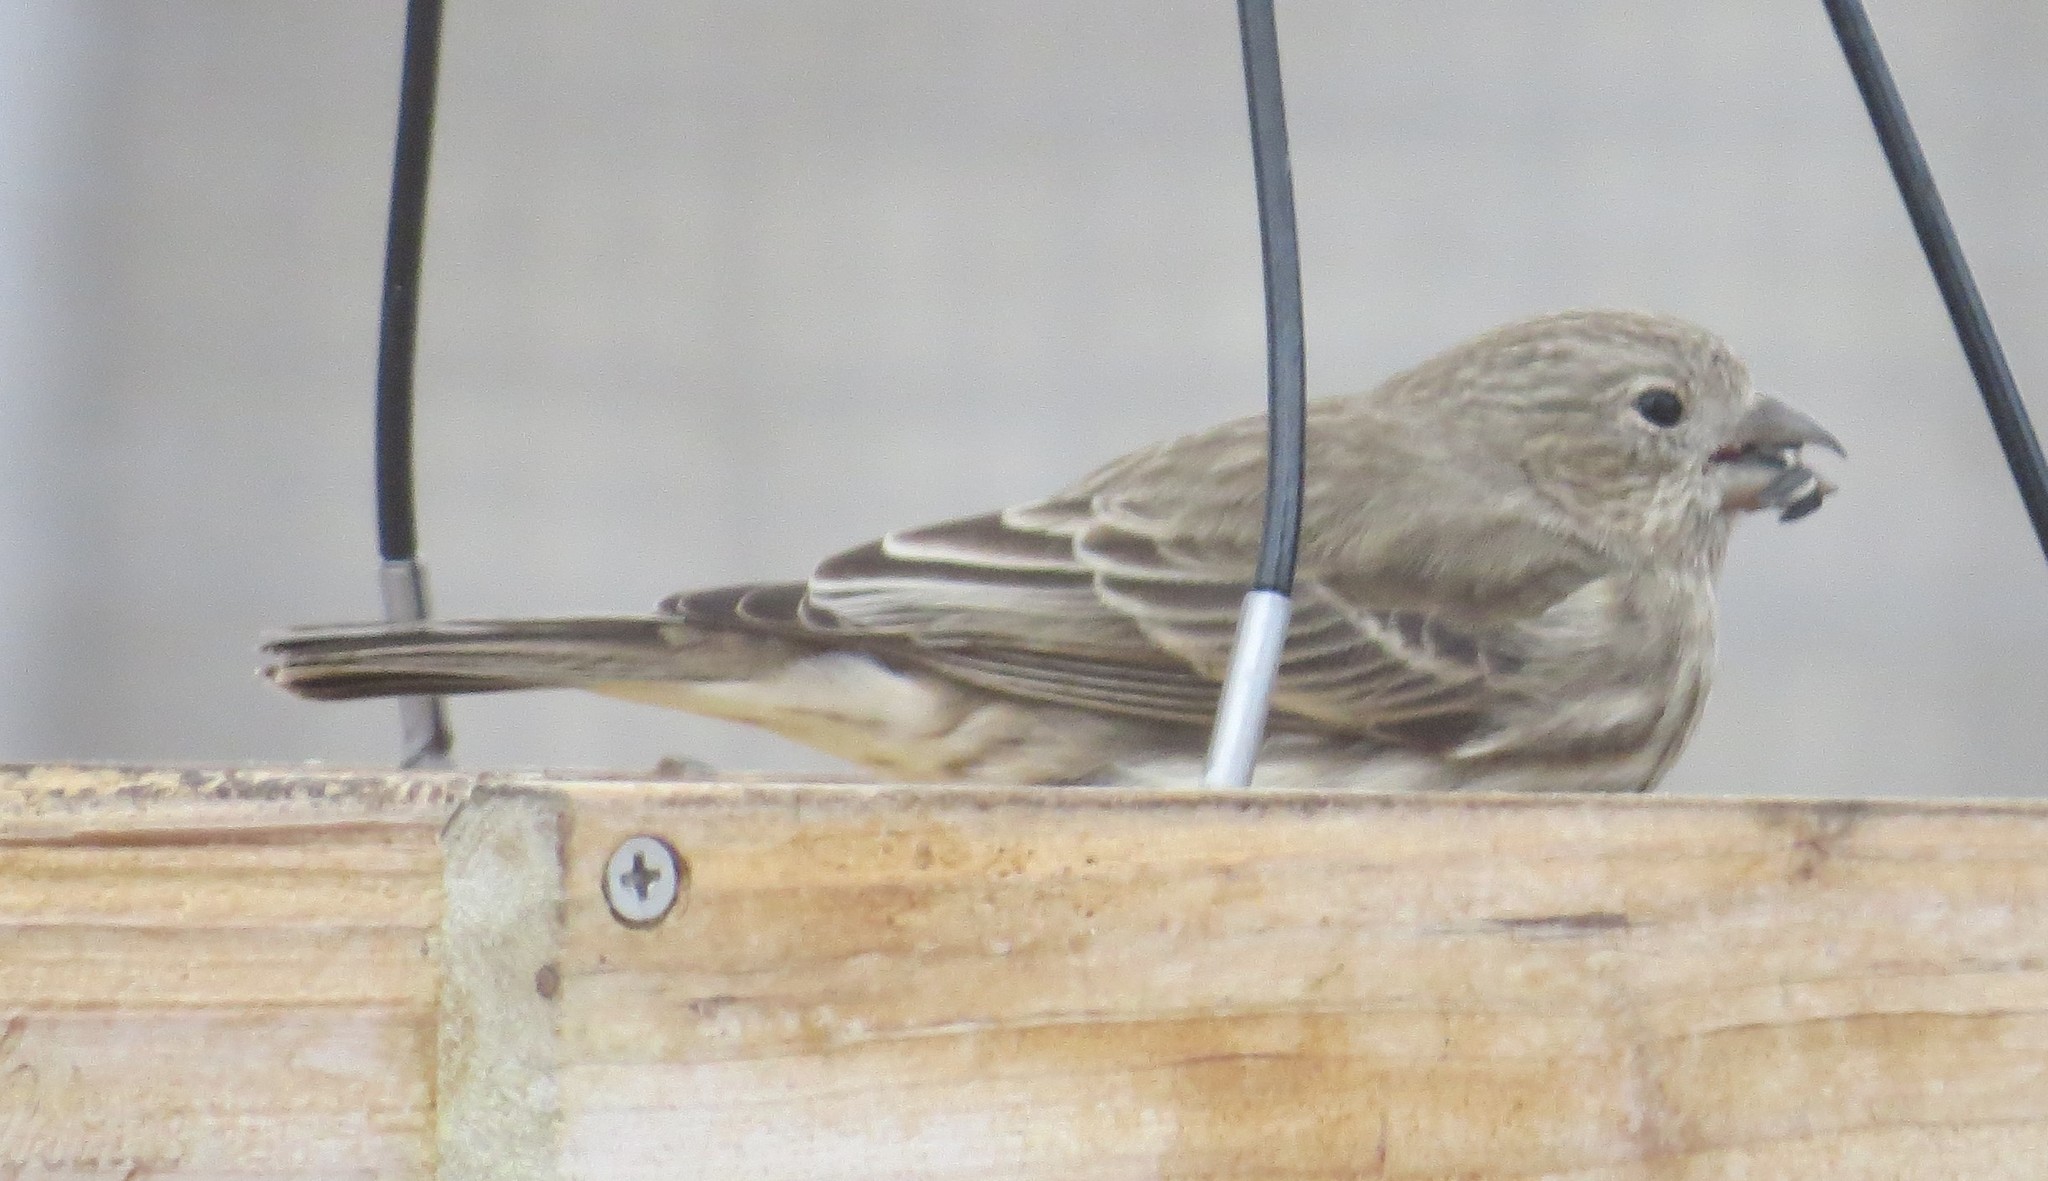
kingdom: Animalia
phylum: Chordata
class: Aves
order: Passeriformes
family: Fringillidae
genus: Haemorhous
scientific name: Haemorhous mexicanus
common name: House finch
